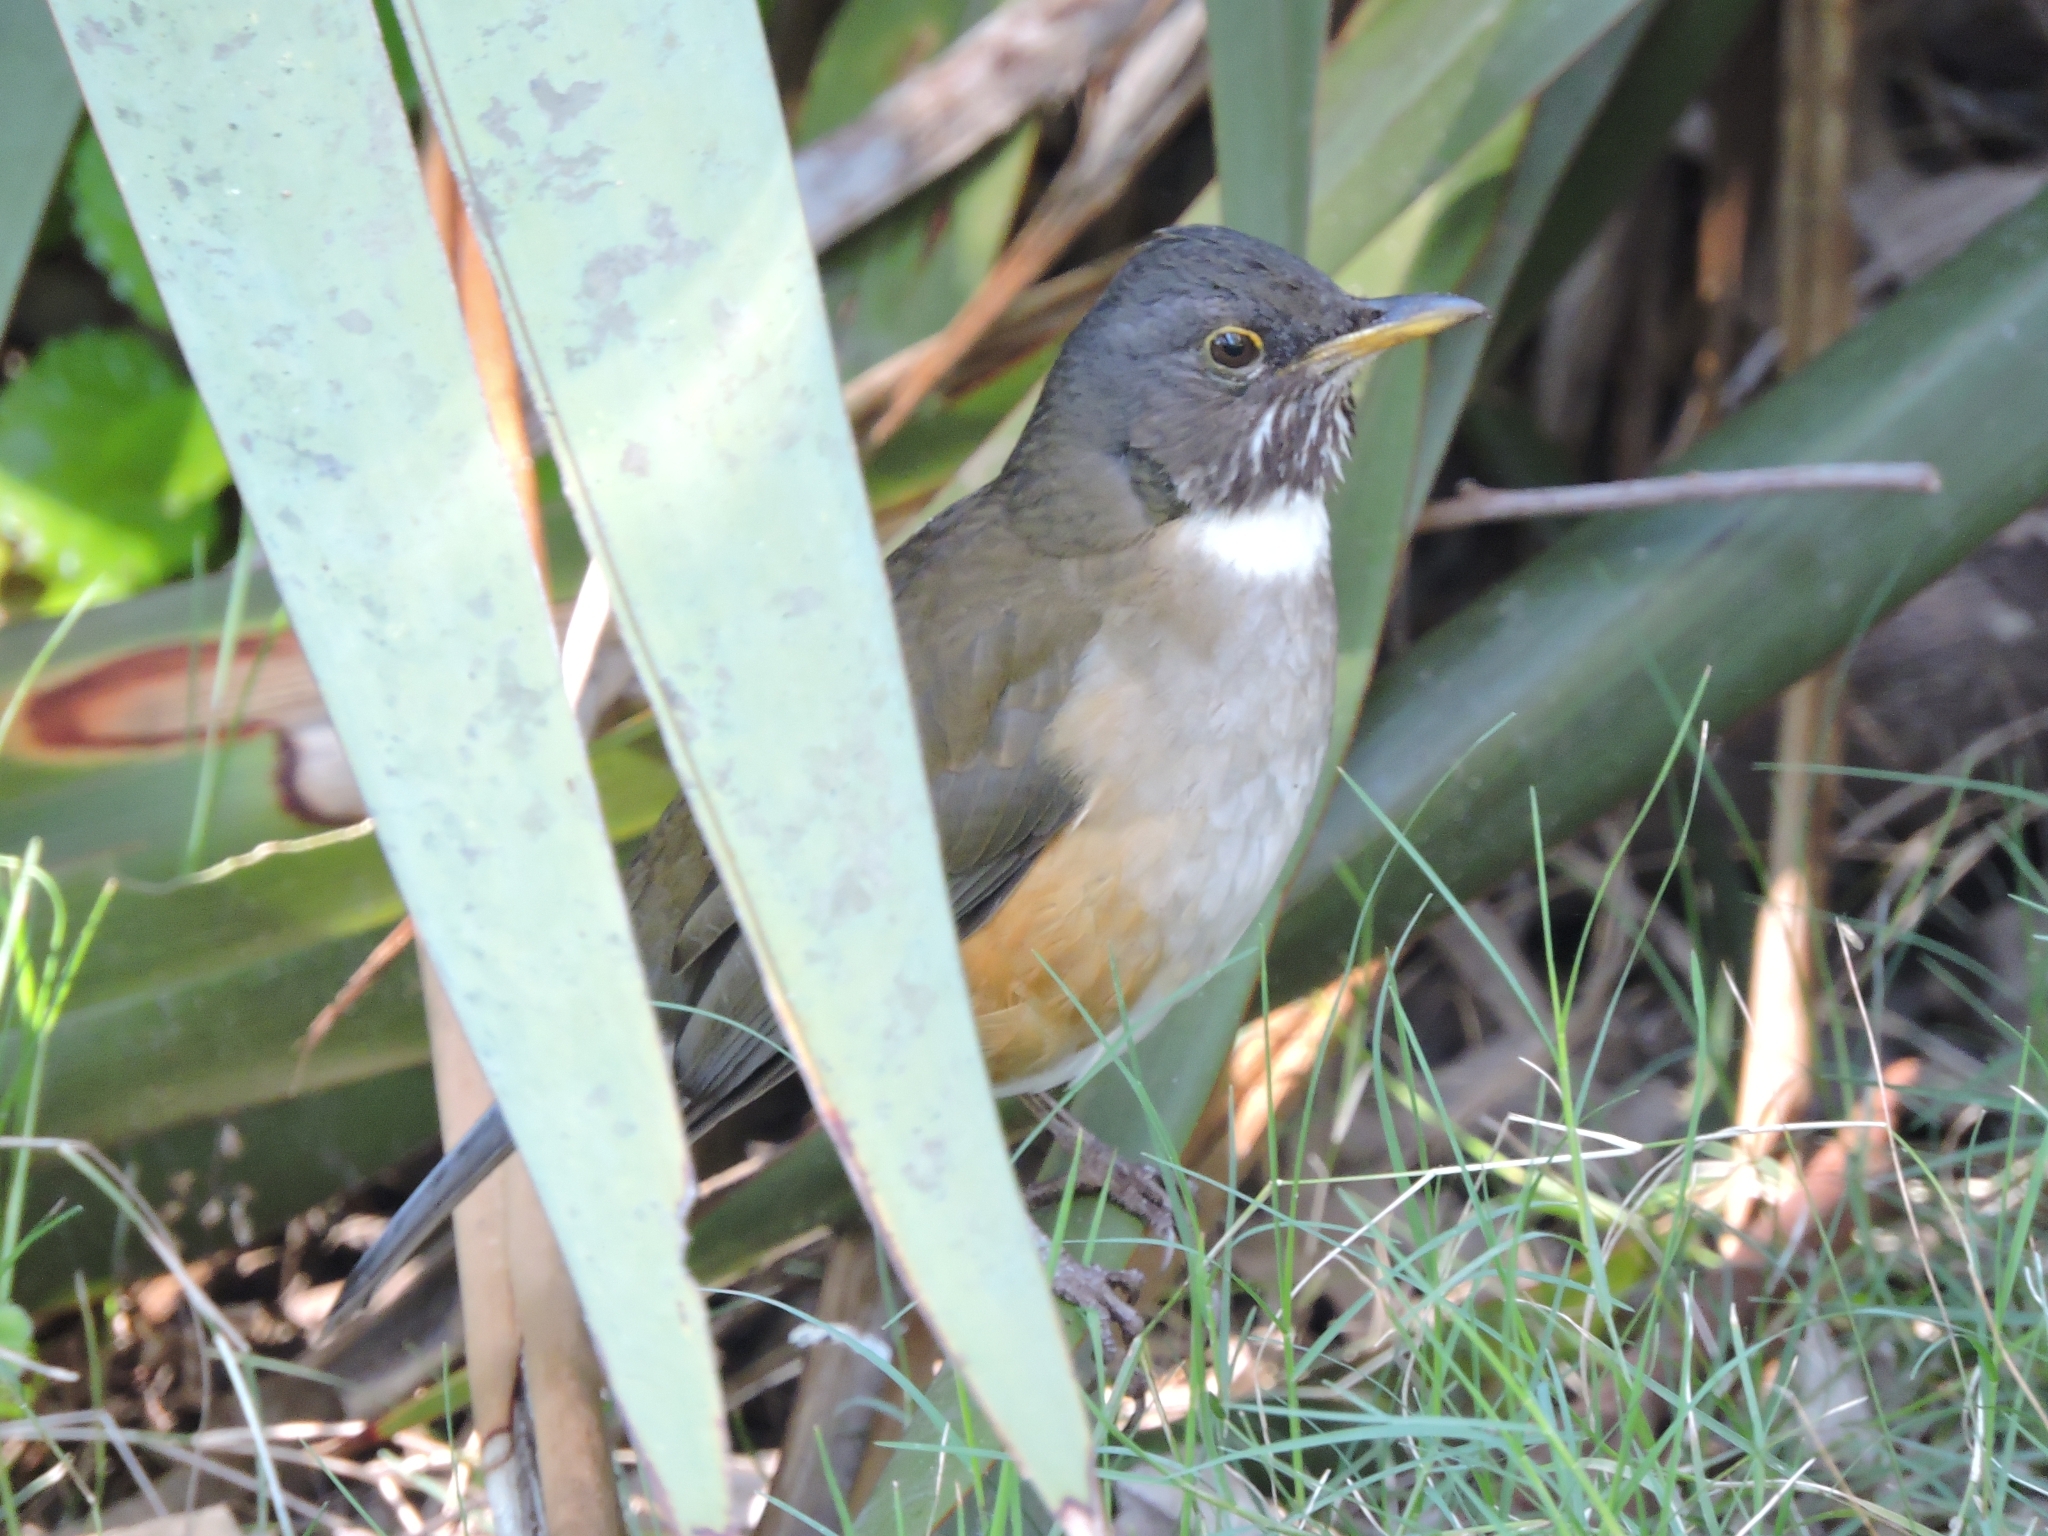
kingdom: Animalia
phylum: Chordata
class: Aves
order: Passeriformes
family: Turdidae
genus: Turdus
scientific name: Turdus albicollis
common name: White-necked thrush
